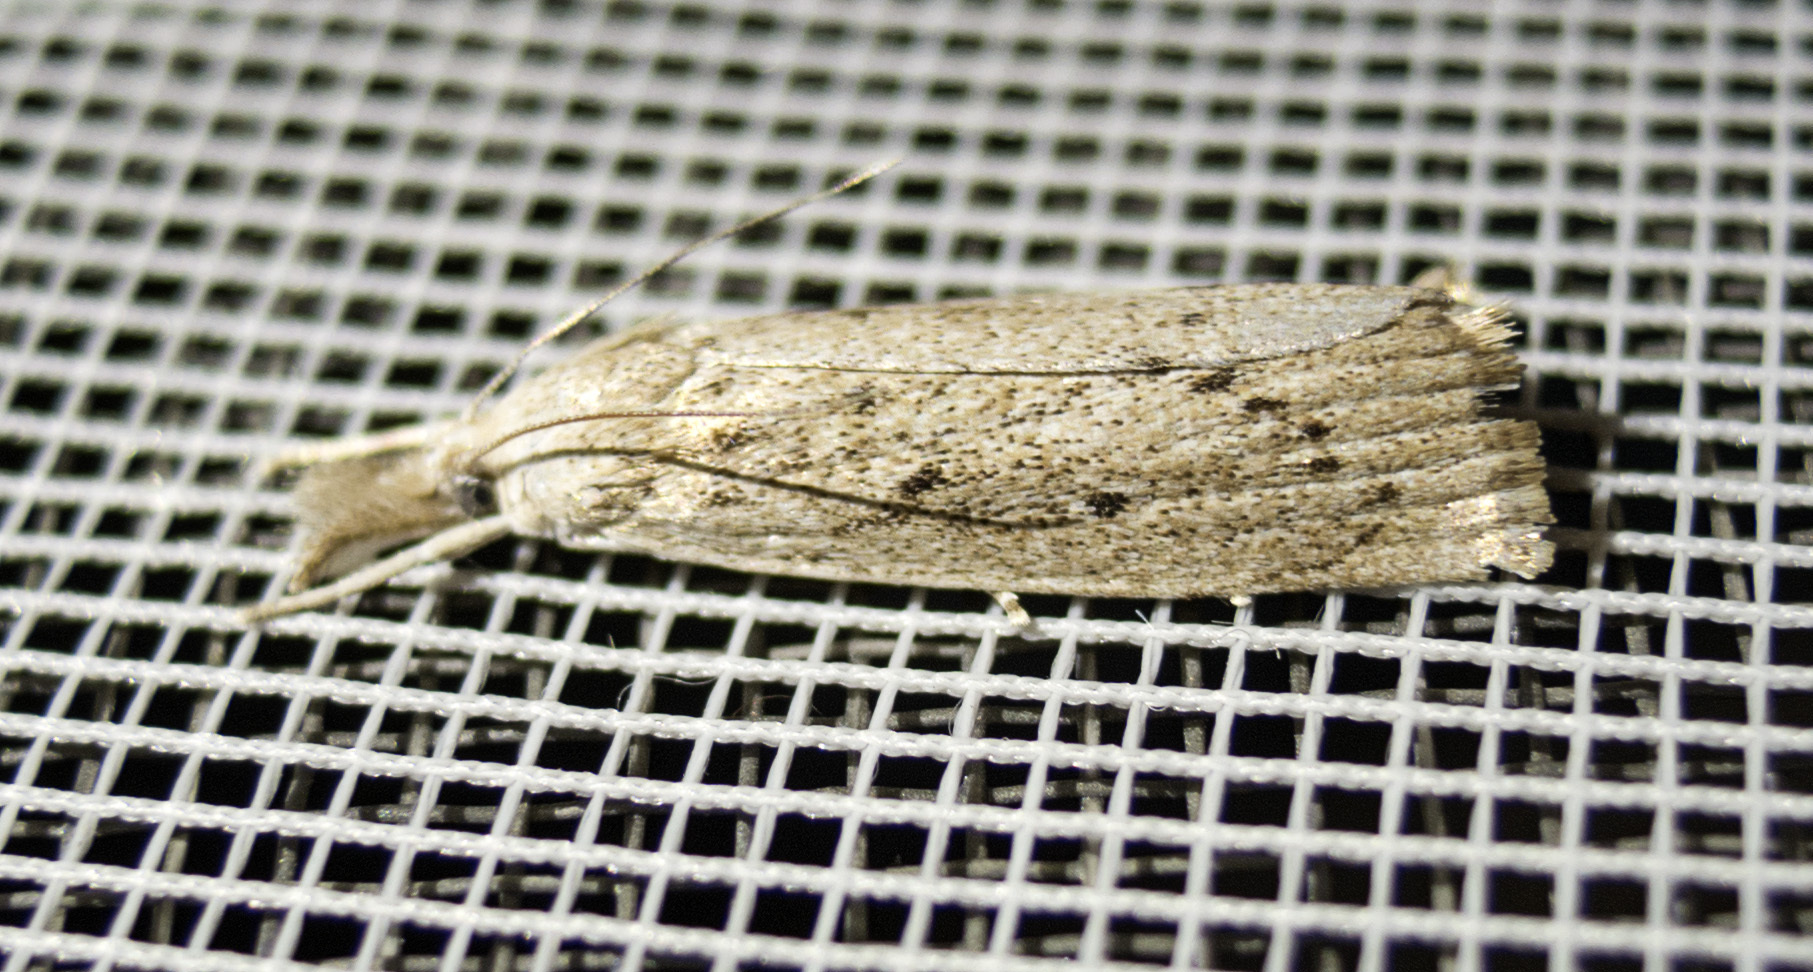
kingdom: Animalia
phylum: Arthropoda
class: Insecta
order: Lepidoptera
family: Crambidae
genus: Calamotropha
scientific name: Calamotropha paludella
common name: Bulrush veneer
